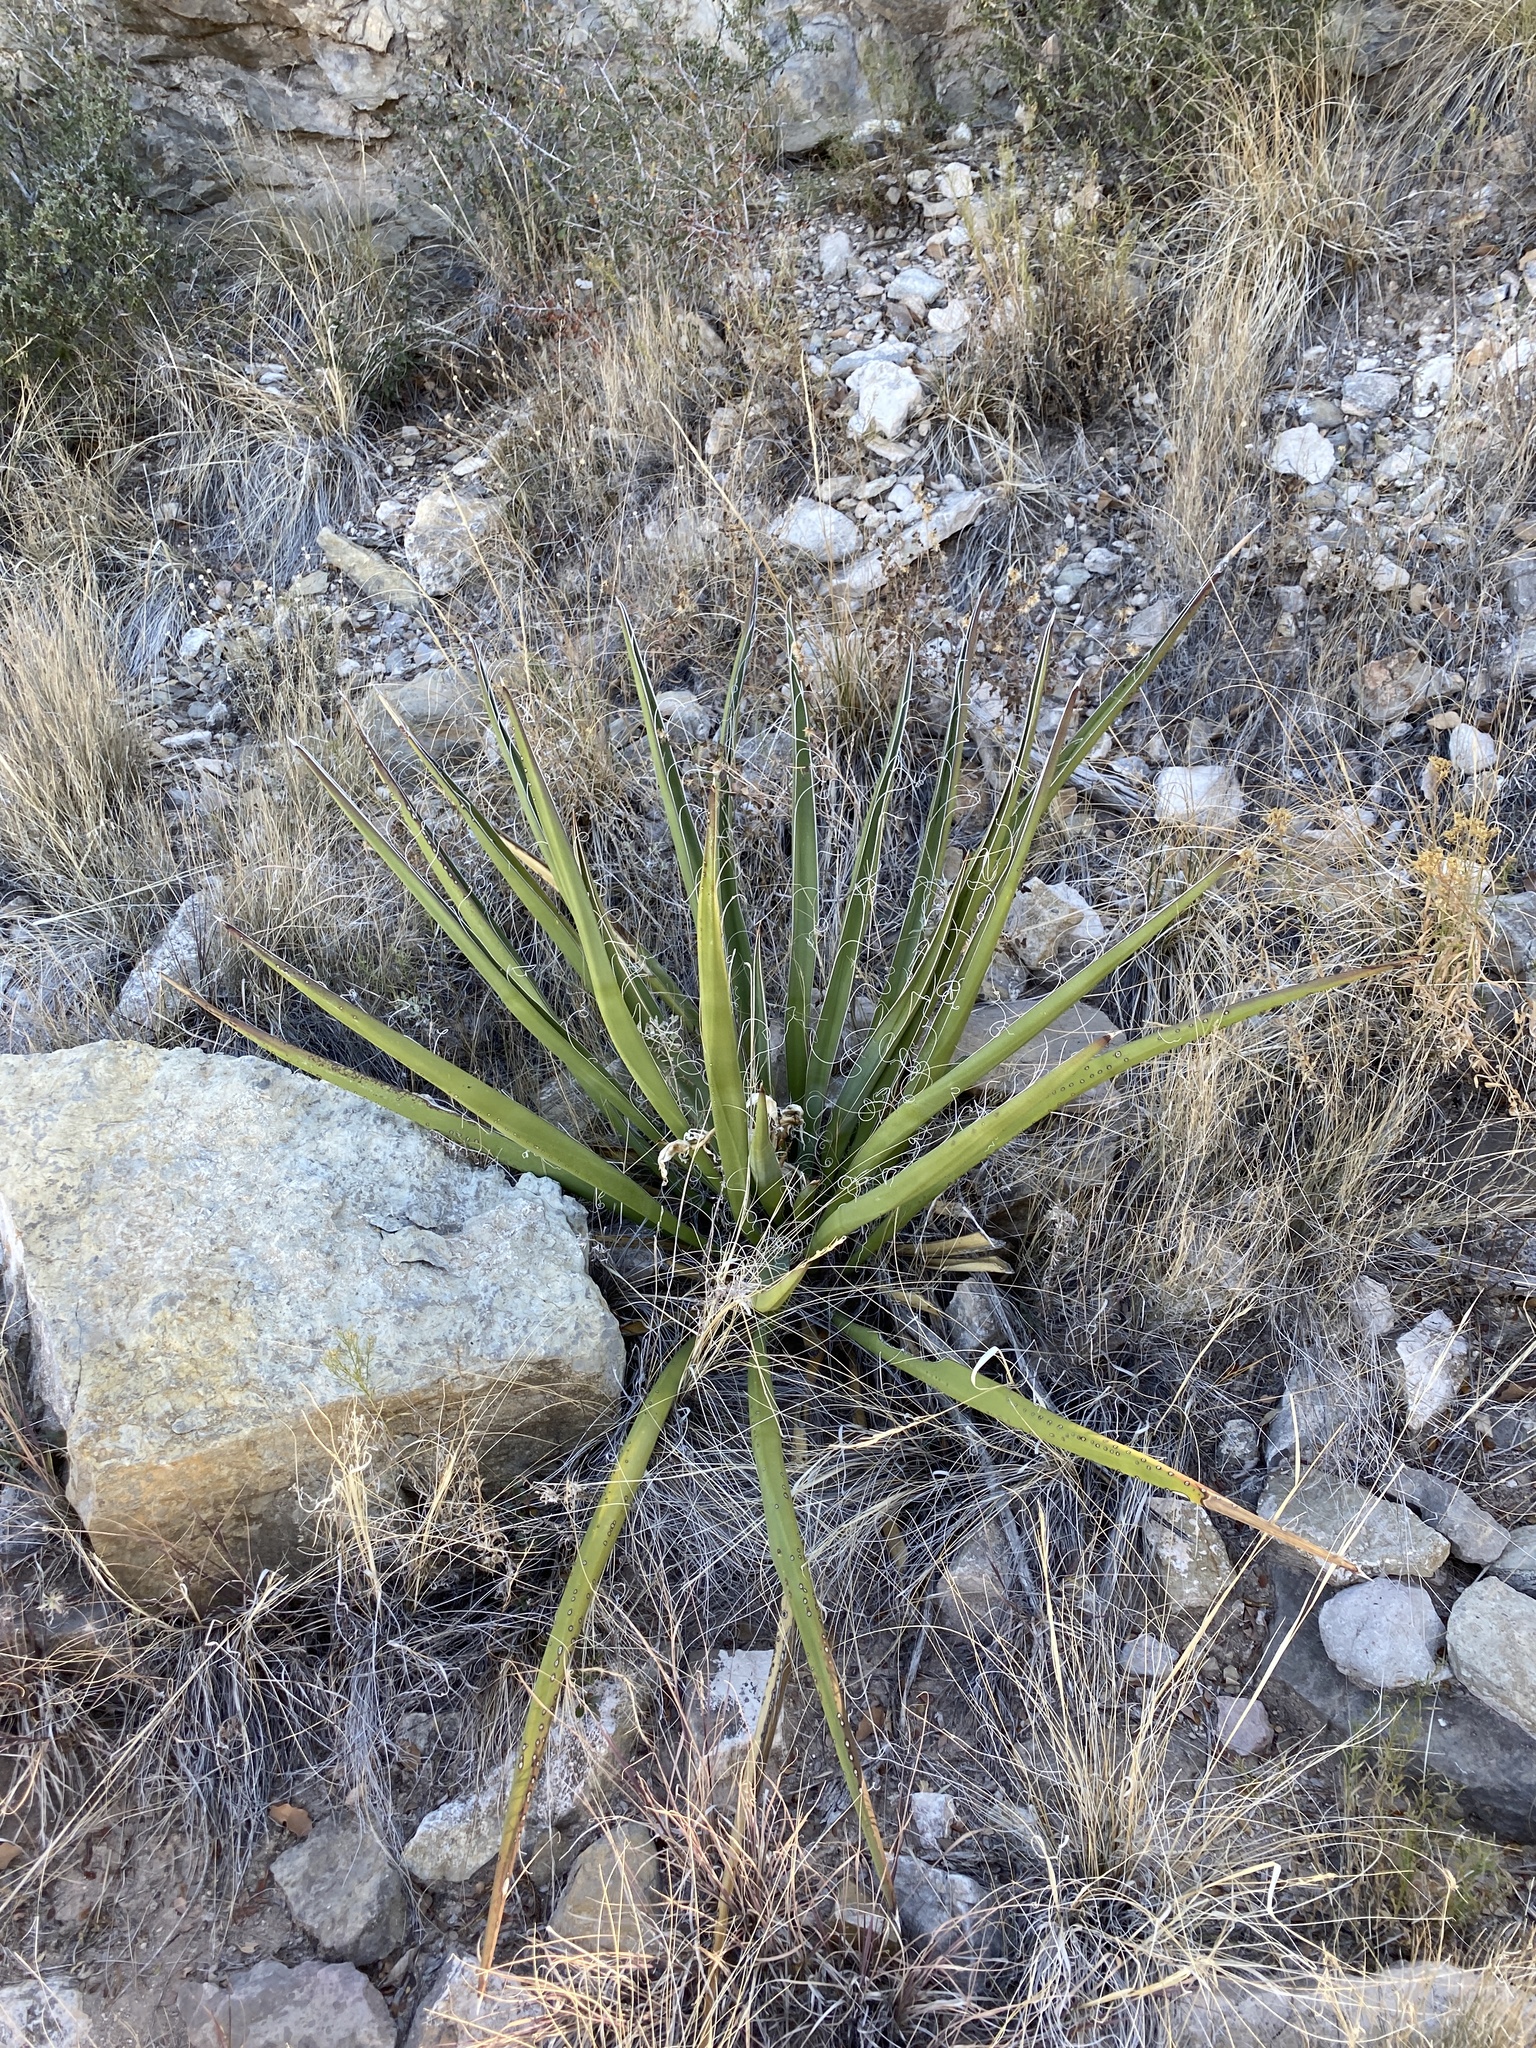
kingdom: Plantae
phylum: Tracheophyta
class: Liliopsida
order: Asparagales
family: Asparagaceae
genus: Yucca
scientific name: Yucca baccata
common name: Banana yucca
